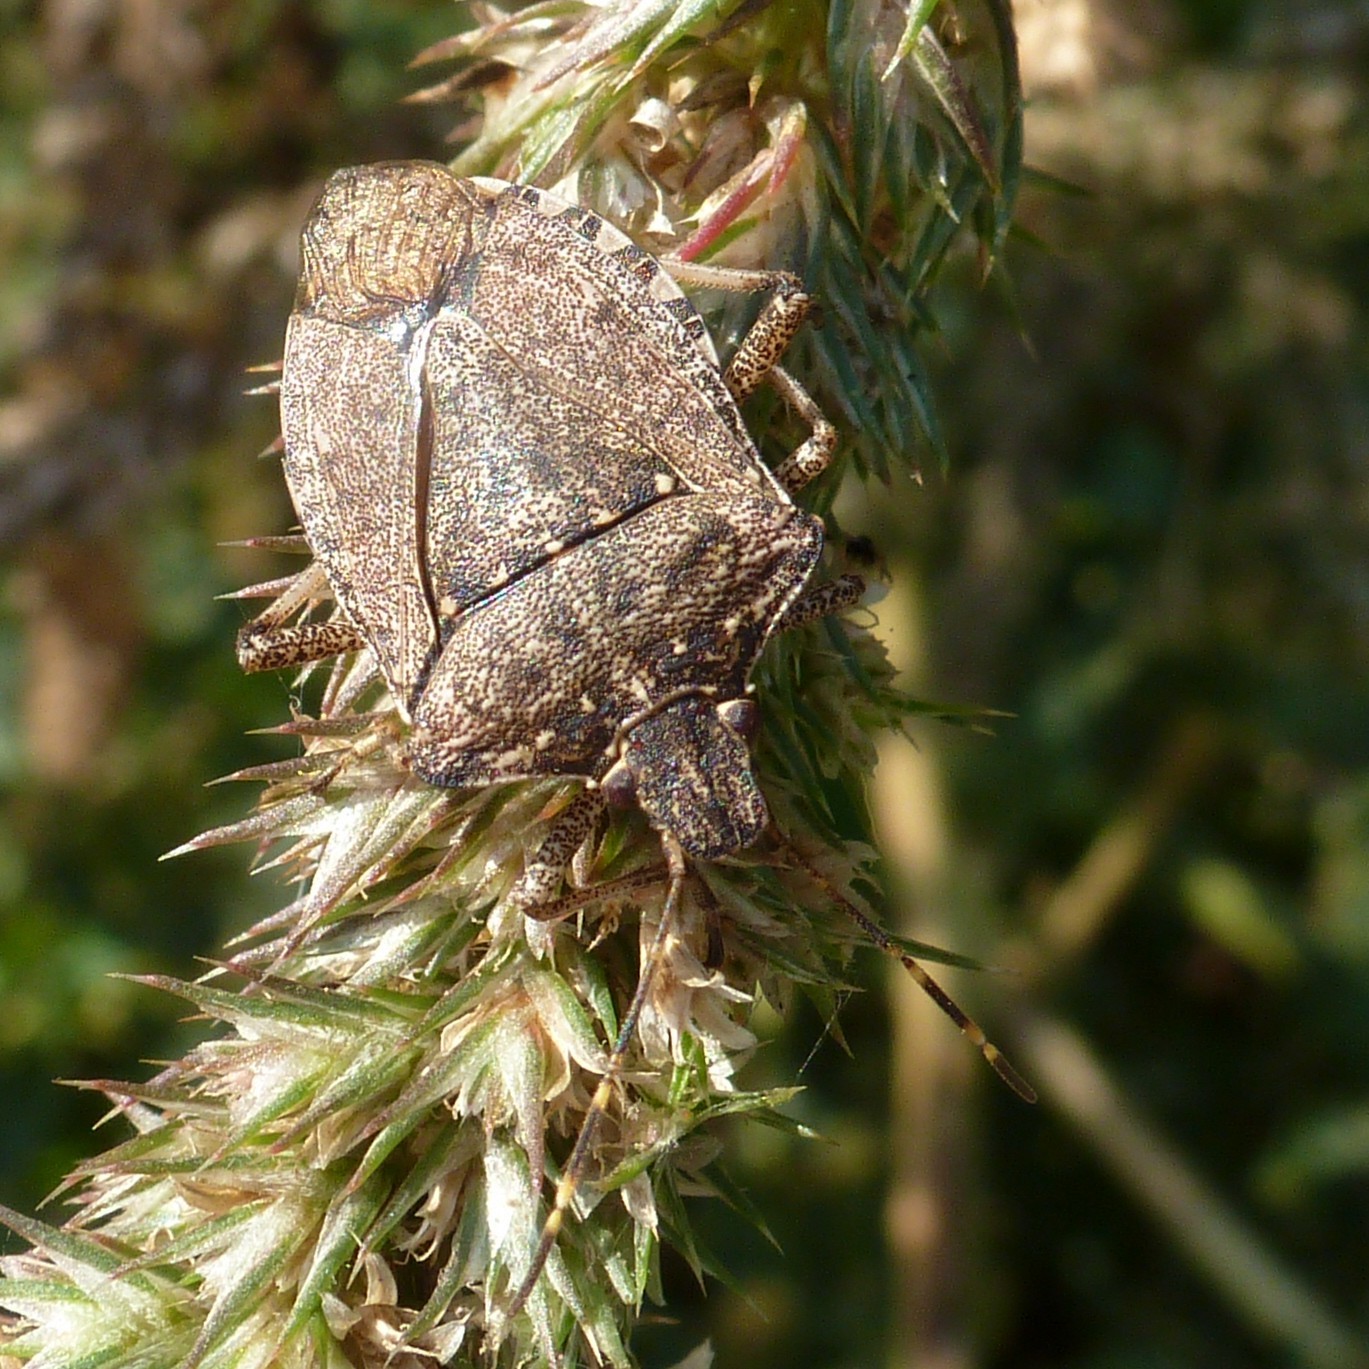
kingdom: Animalia
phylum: Arthropoda
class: Insecta
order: Hemiptera
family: Pentatomidae
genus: Halyomorpha
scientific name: Halyomorpha halys
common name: Brown marmorated stink bug
